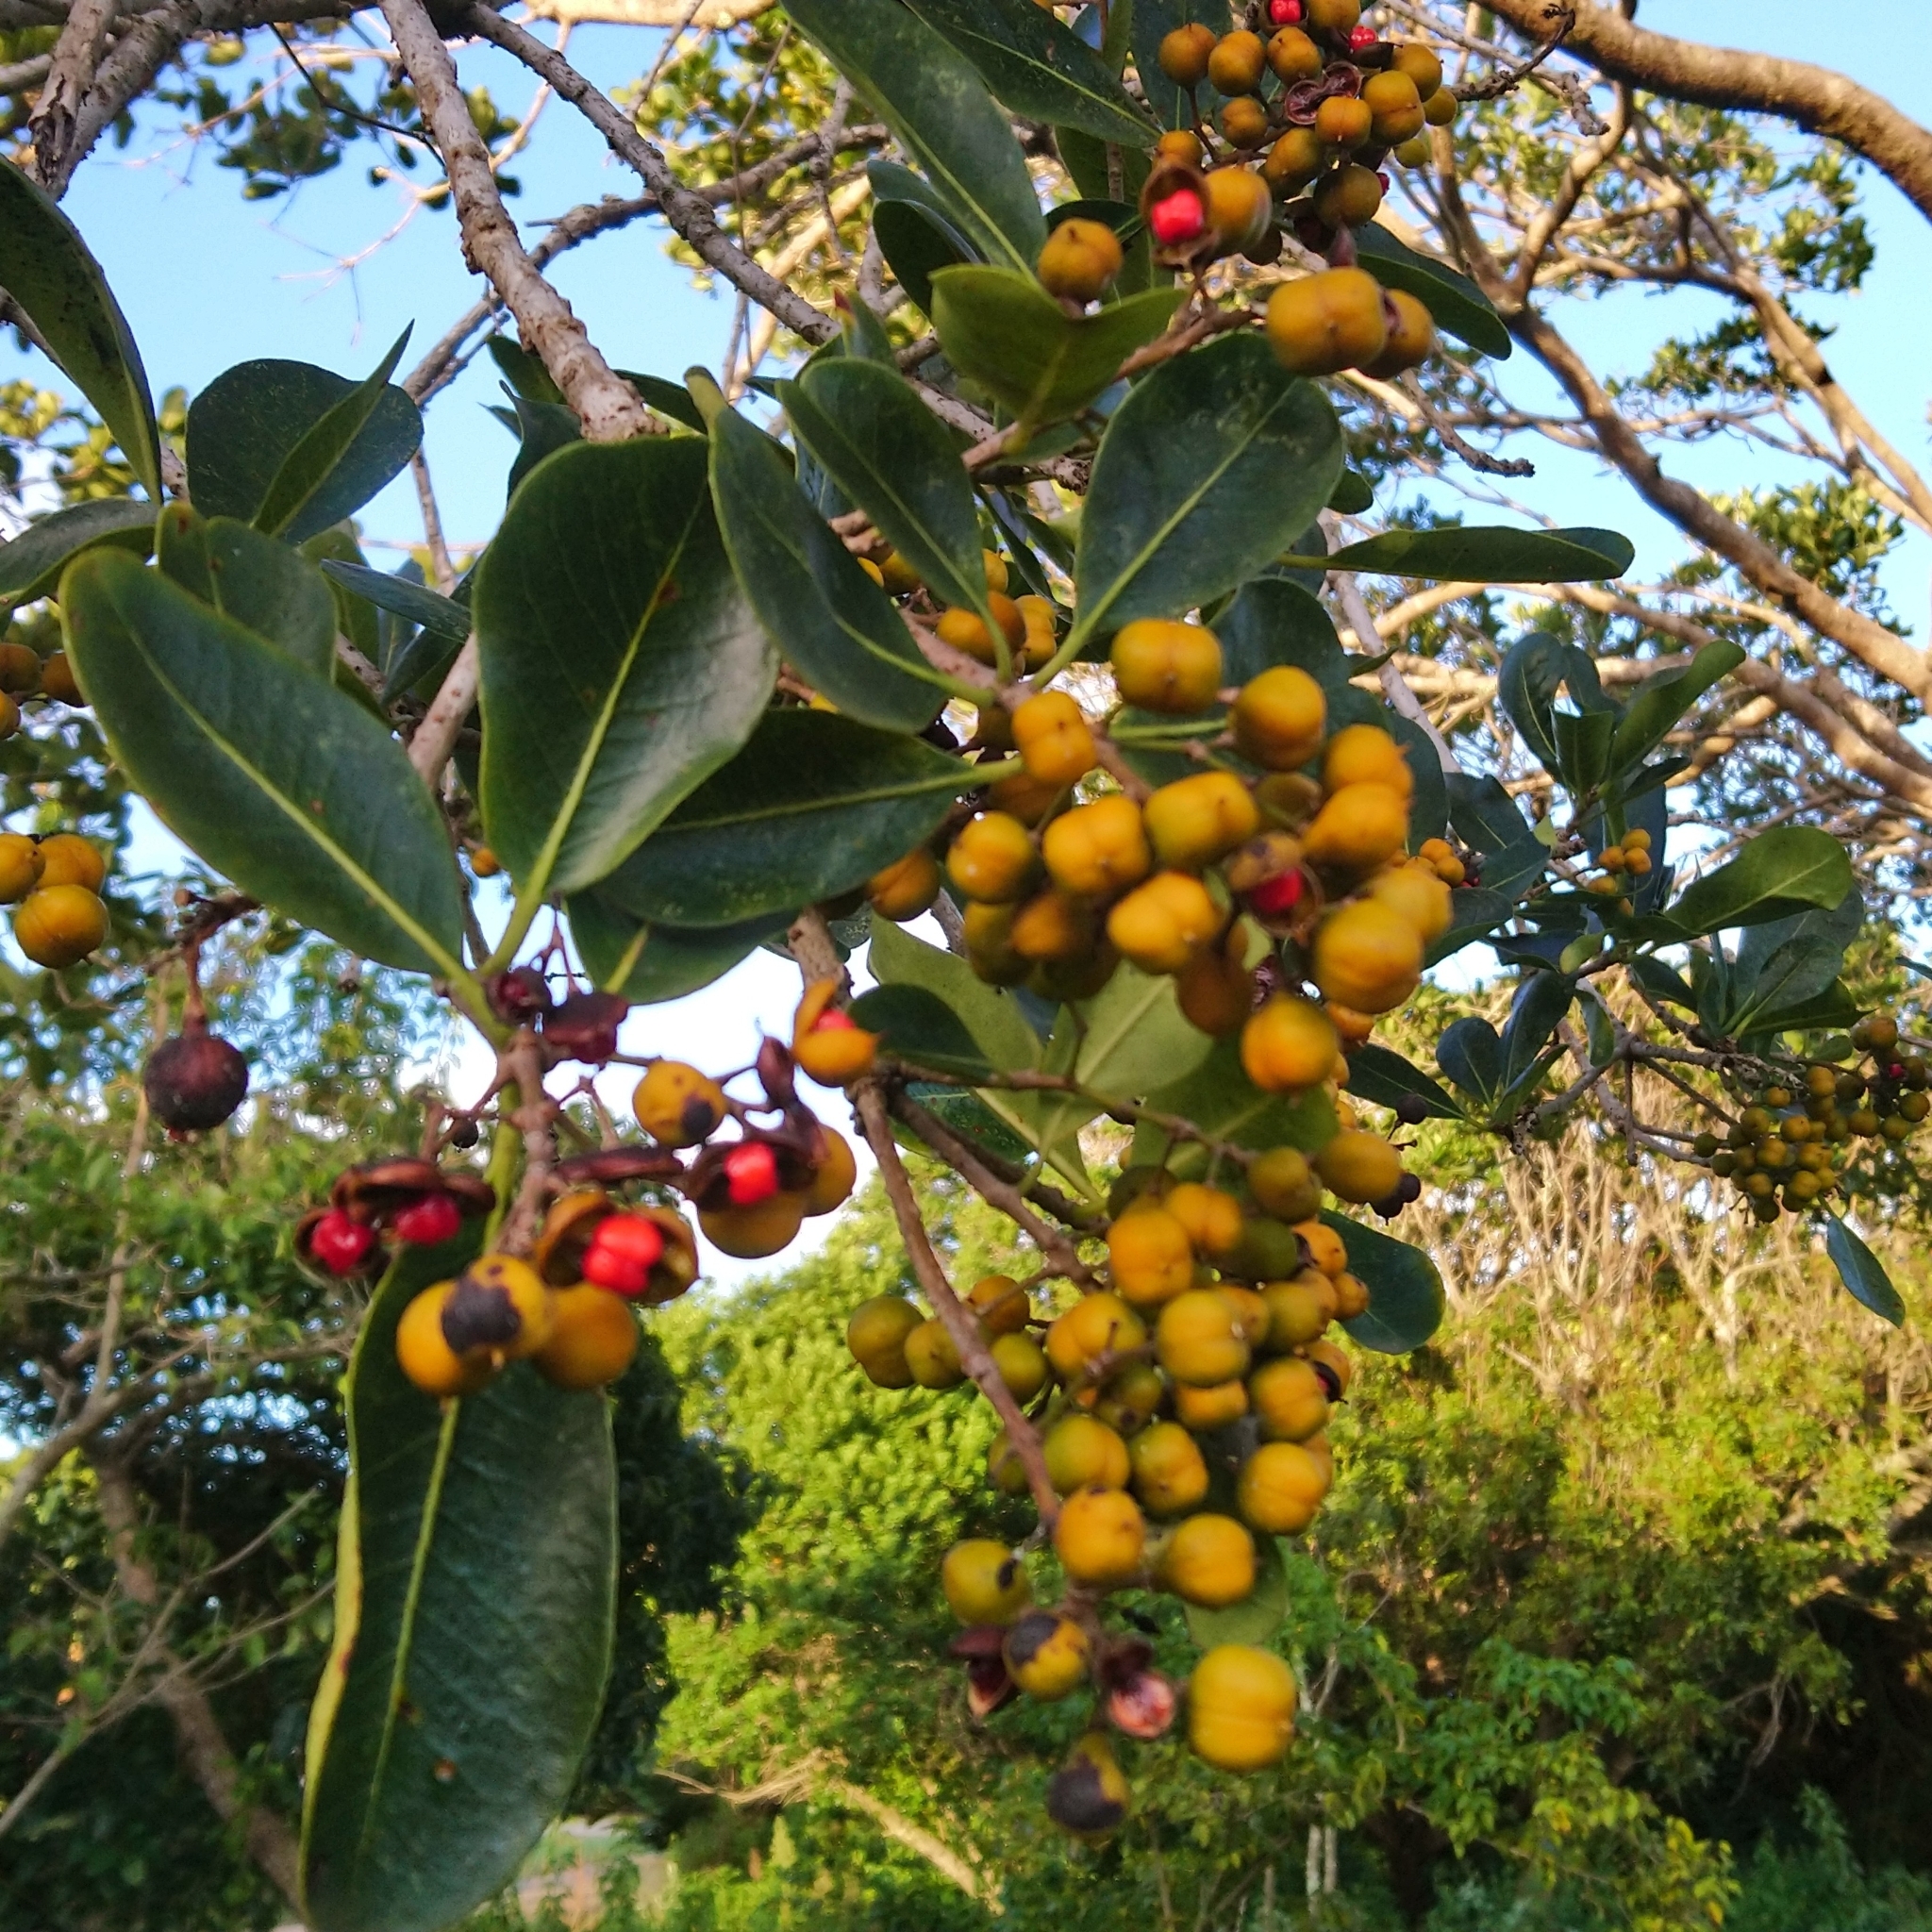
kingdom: Plantae
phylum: Tracheophyta
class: Magnoliopsida
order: Apiales
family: Pittosporaceae
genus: Pittosporum
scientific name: Pittosporum viridiflorum
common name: Cape cheesewood
